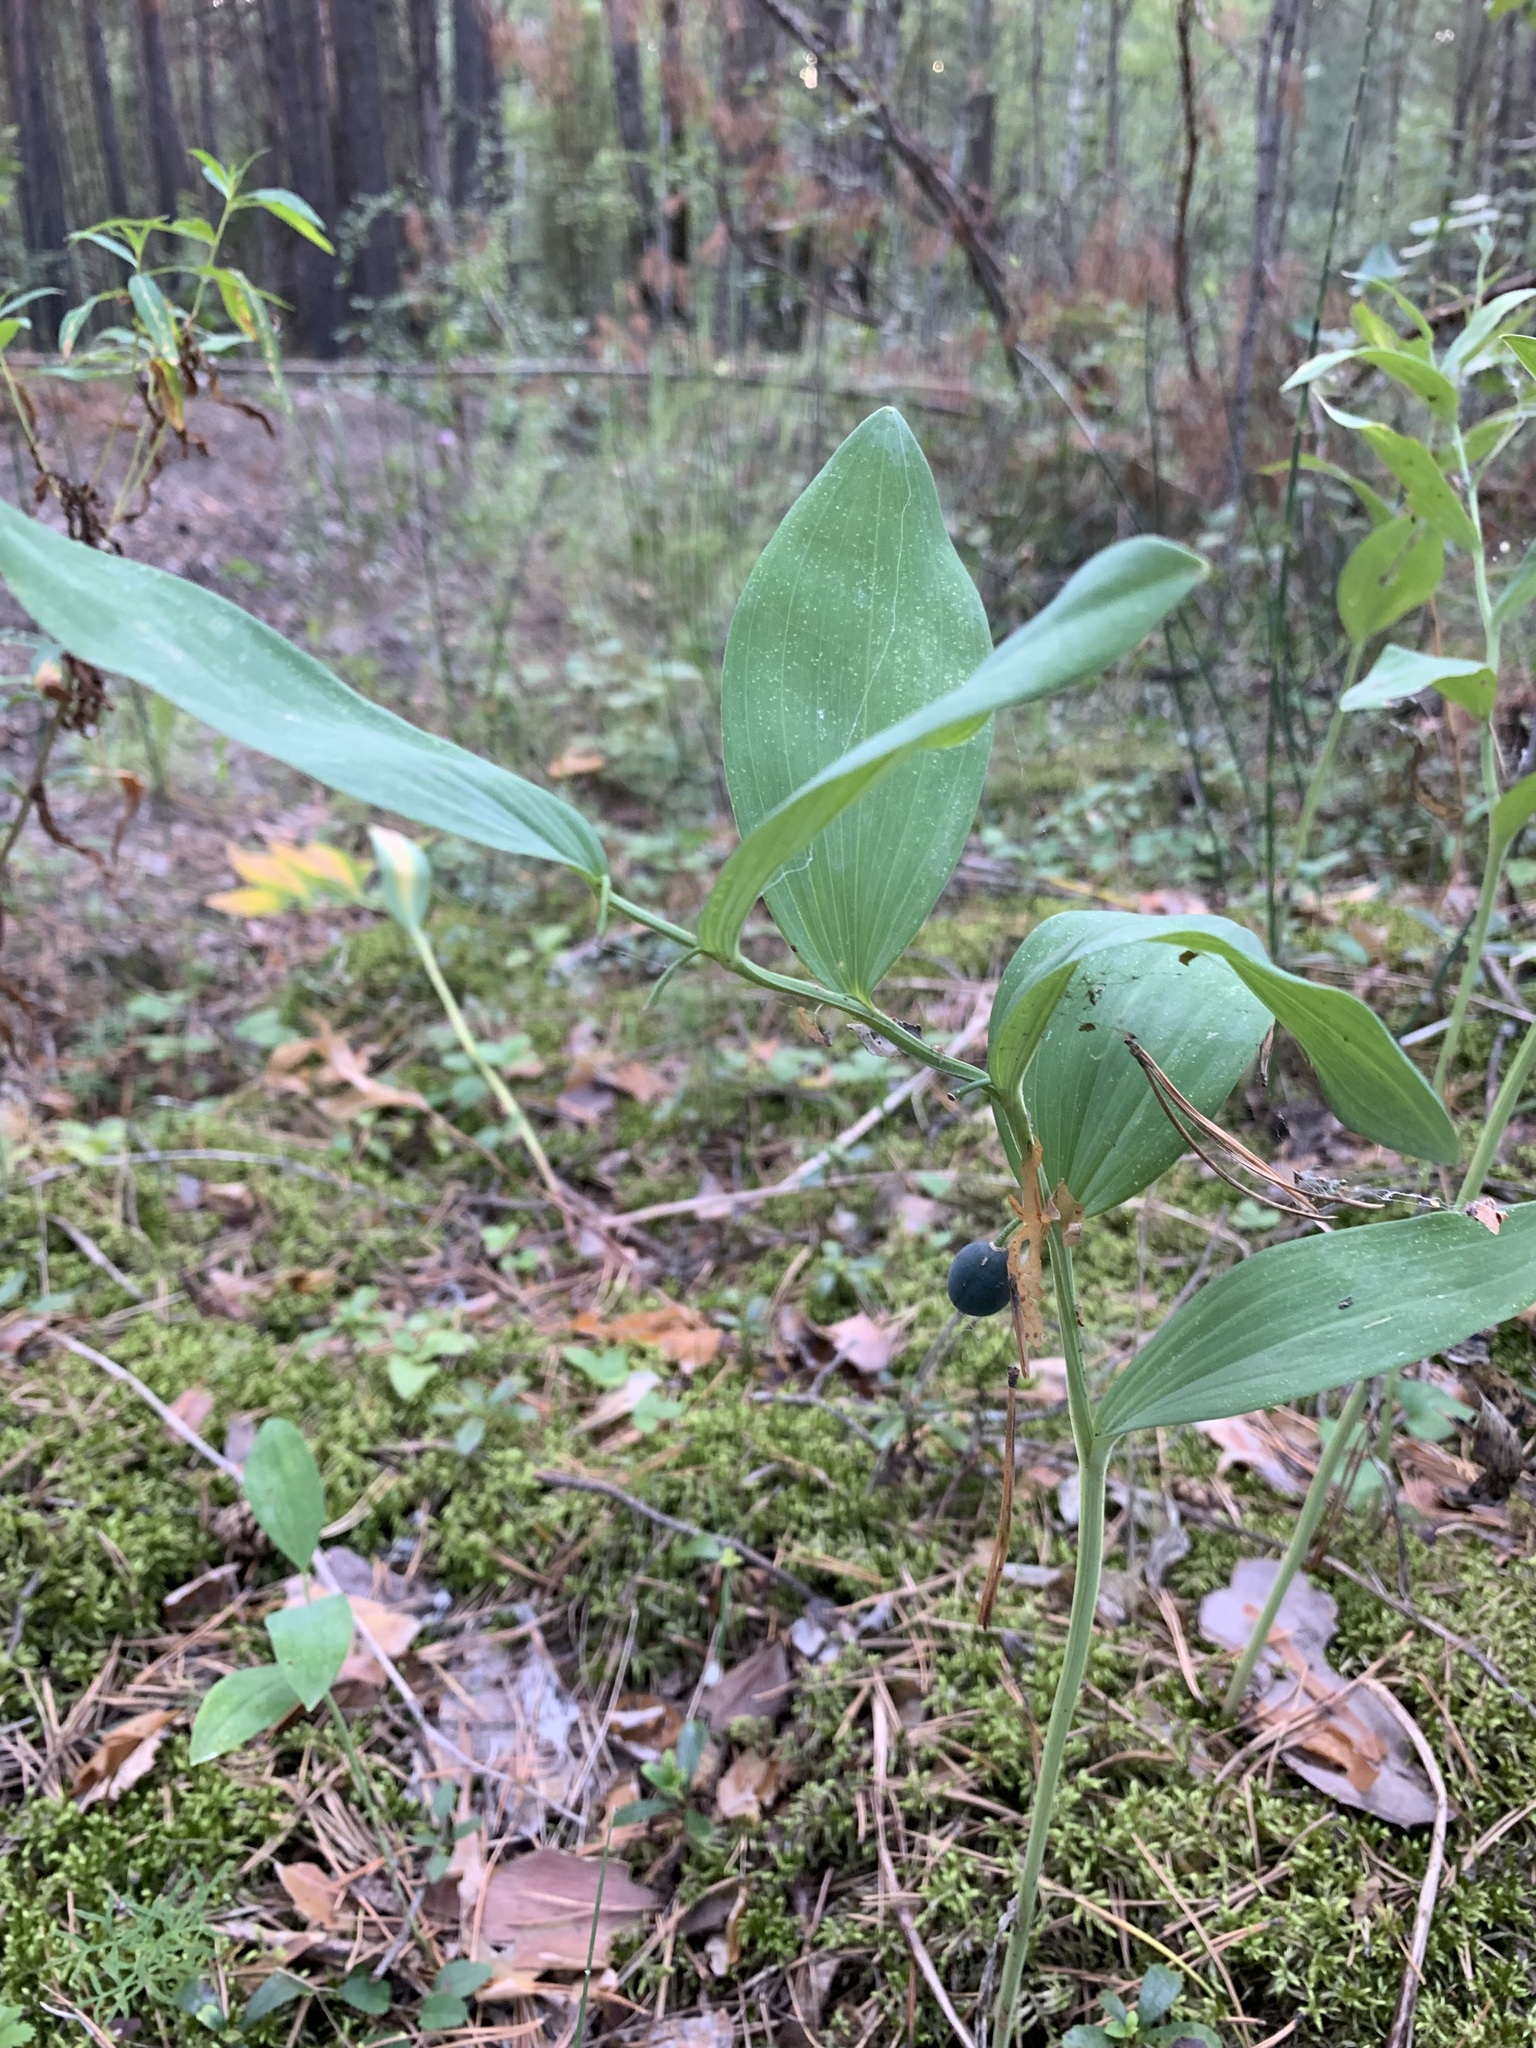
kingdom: Plantae
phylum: Tracheophyta
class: Liliopsida
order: Asparagales
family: Asparagaceae
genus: Polygonatum
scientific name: Polygonatum odoratum
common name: Angular solomon's-seal
